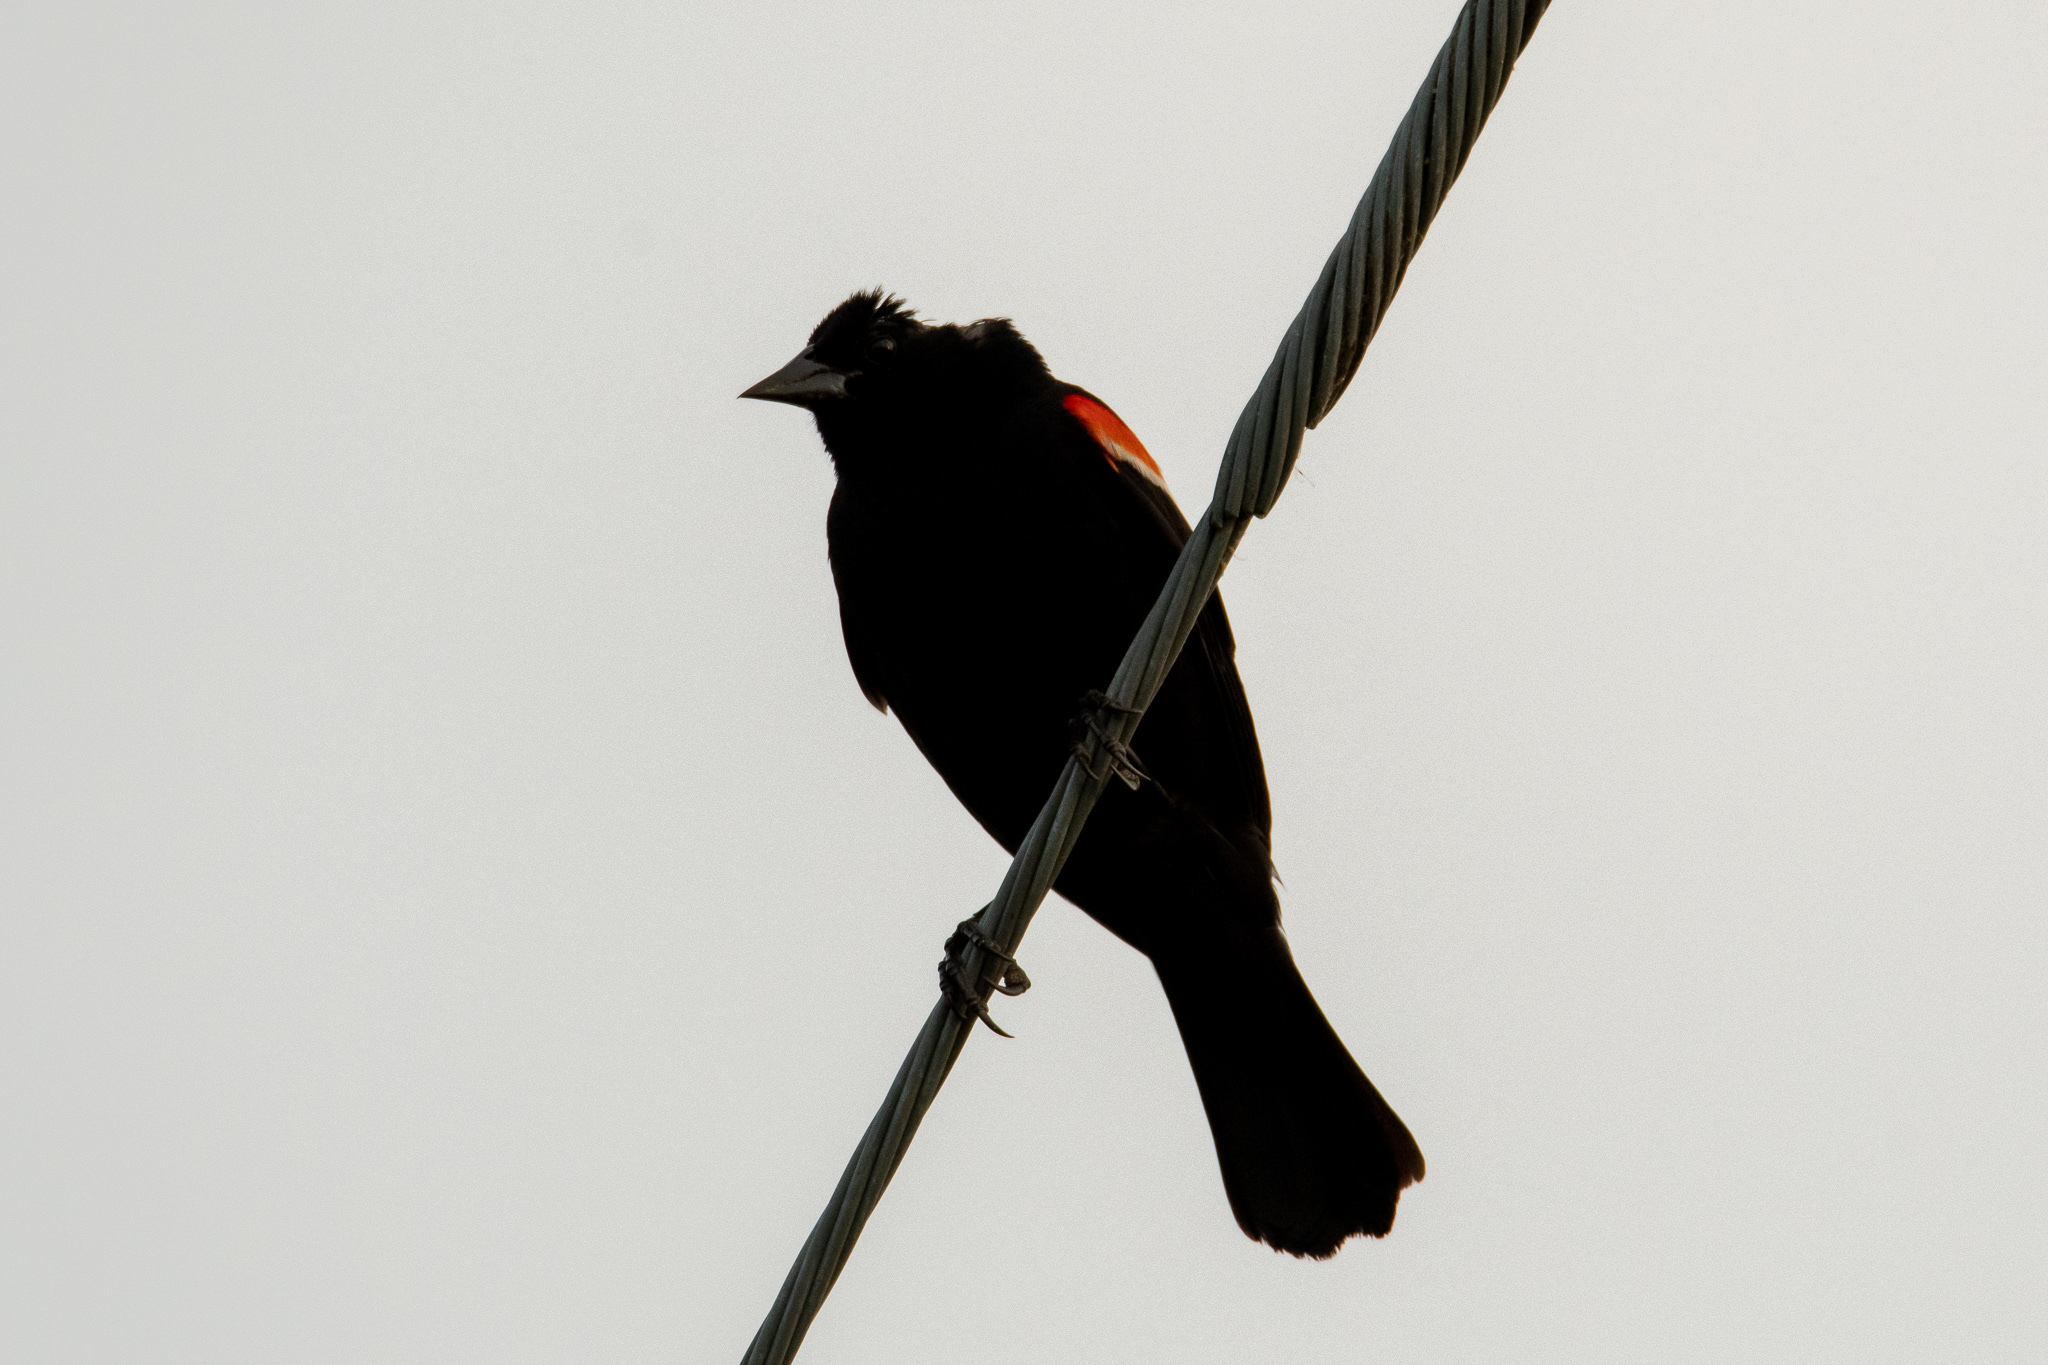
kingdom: Animalia
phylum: Chordata
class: Aves
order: Passeriformes
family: Icteridae
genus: Agelaius
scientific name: Agelaius phoeniceus
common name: Red-winged blackbird
